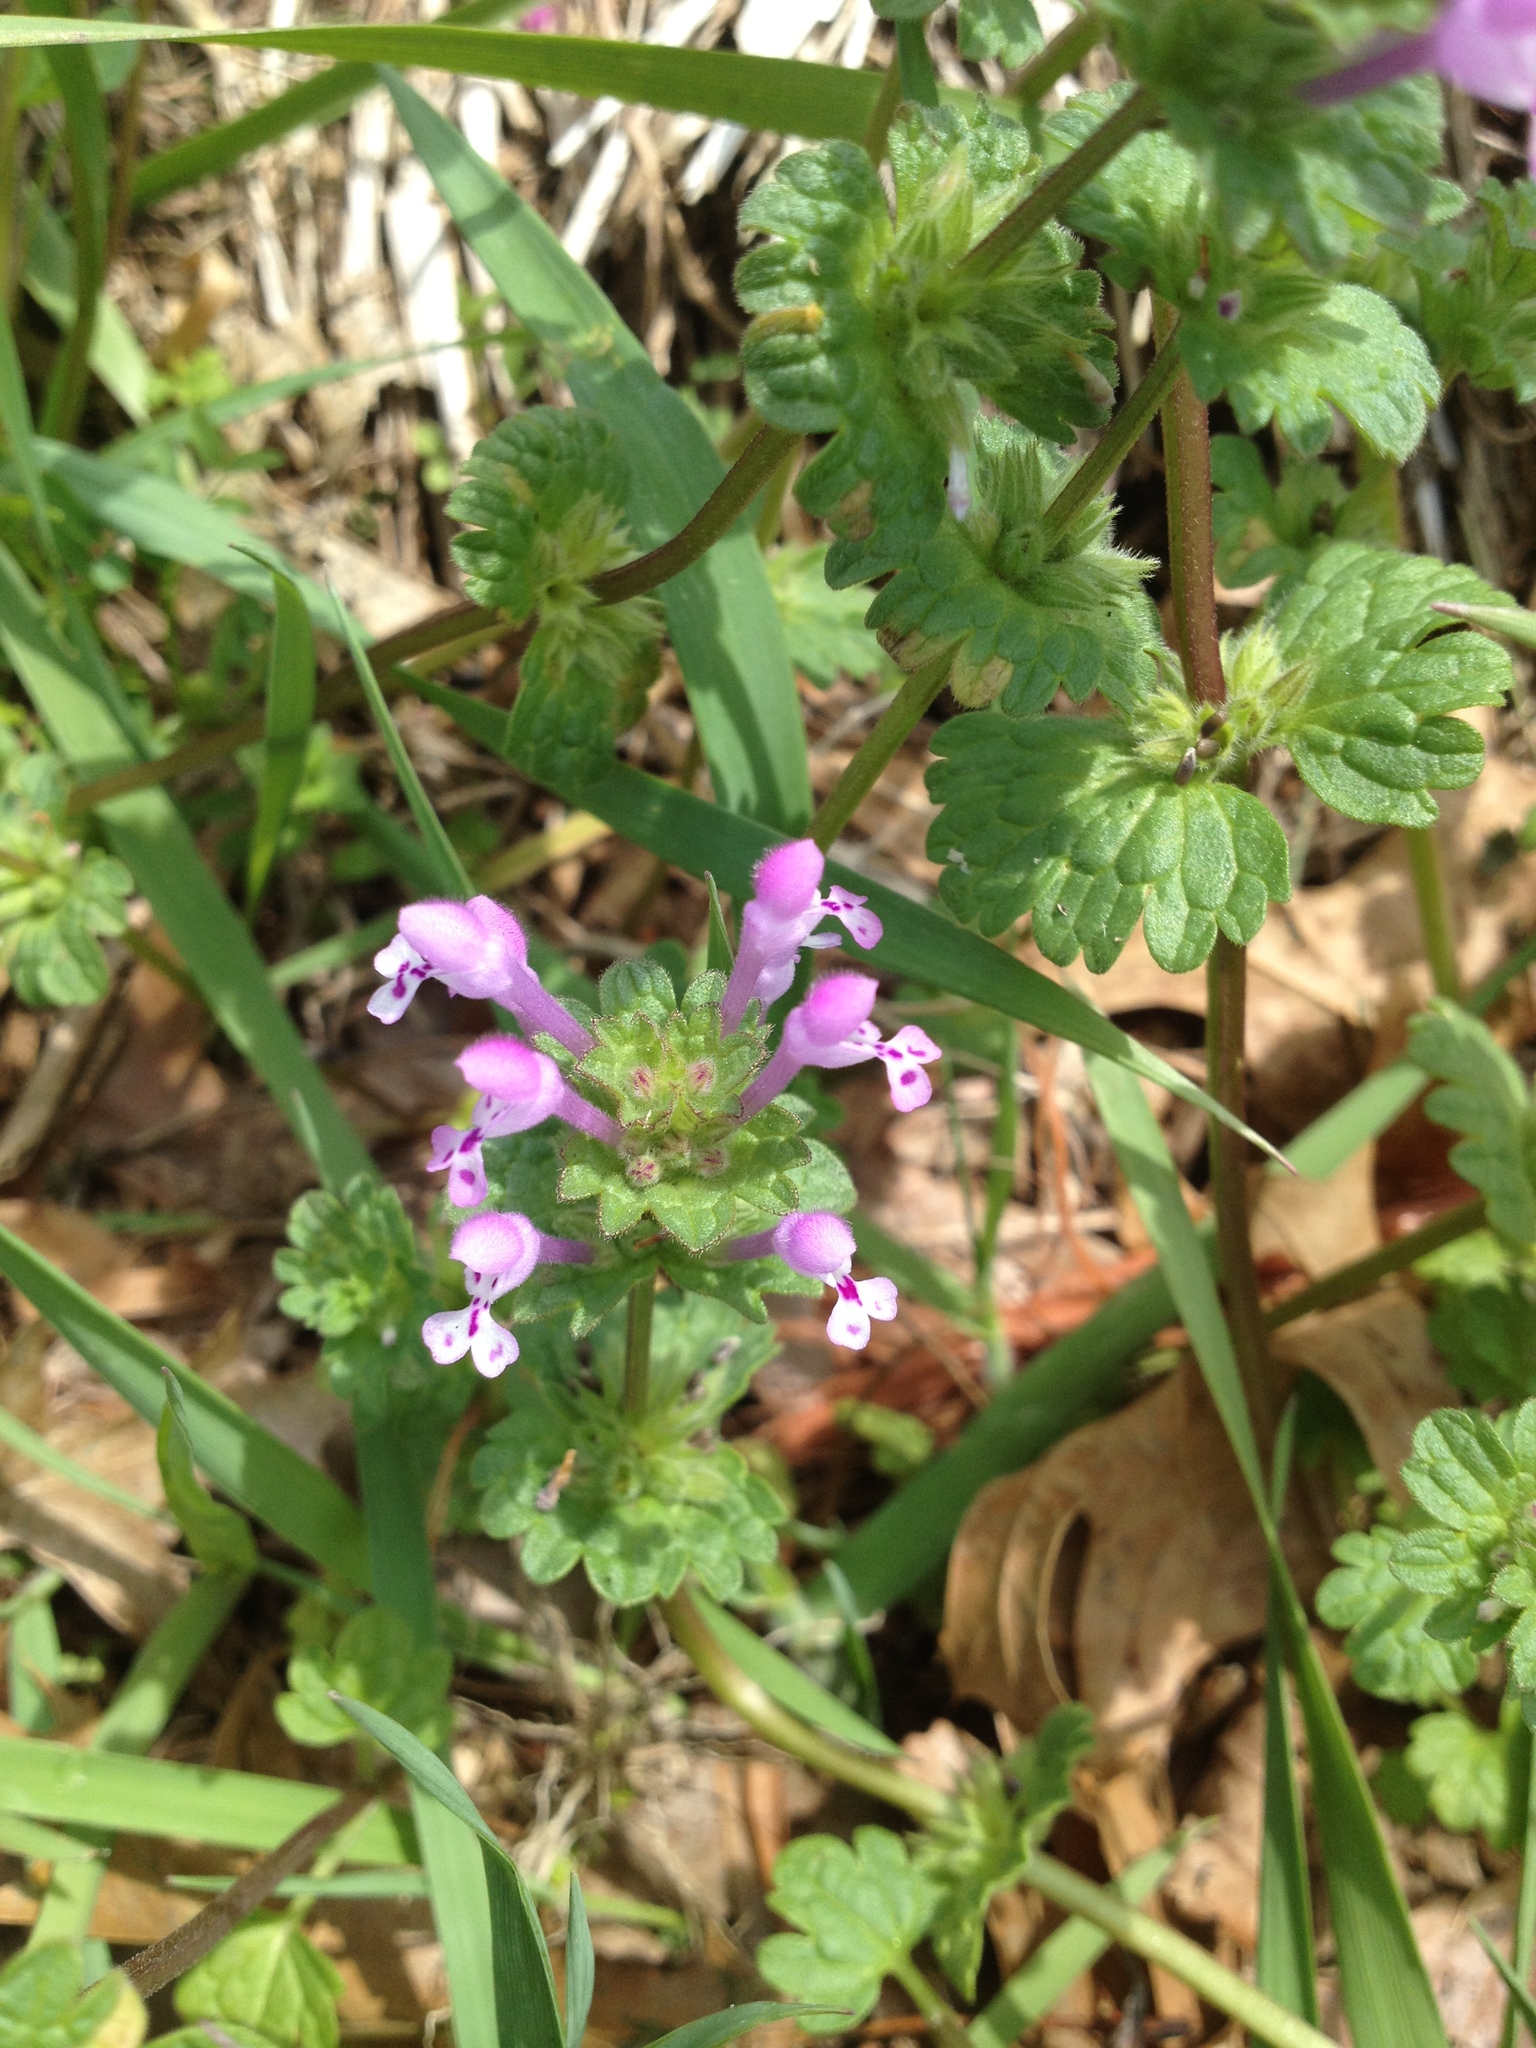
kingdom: Plantae
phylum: Tracheophyta
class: Magnoliopsida
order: Lamiales
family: Lamiaceae
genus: Lamium
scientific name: Lamium amplexicaule
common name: Henbit dead-nettle
